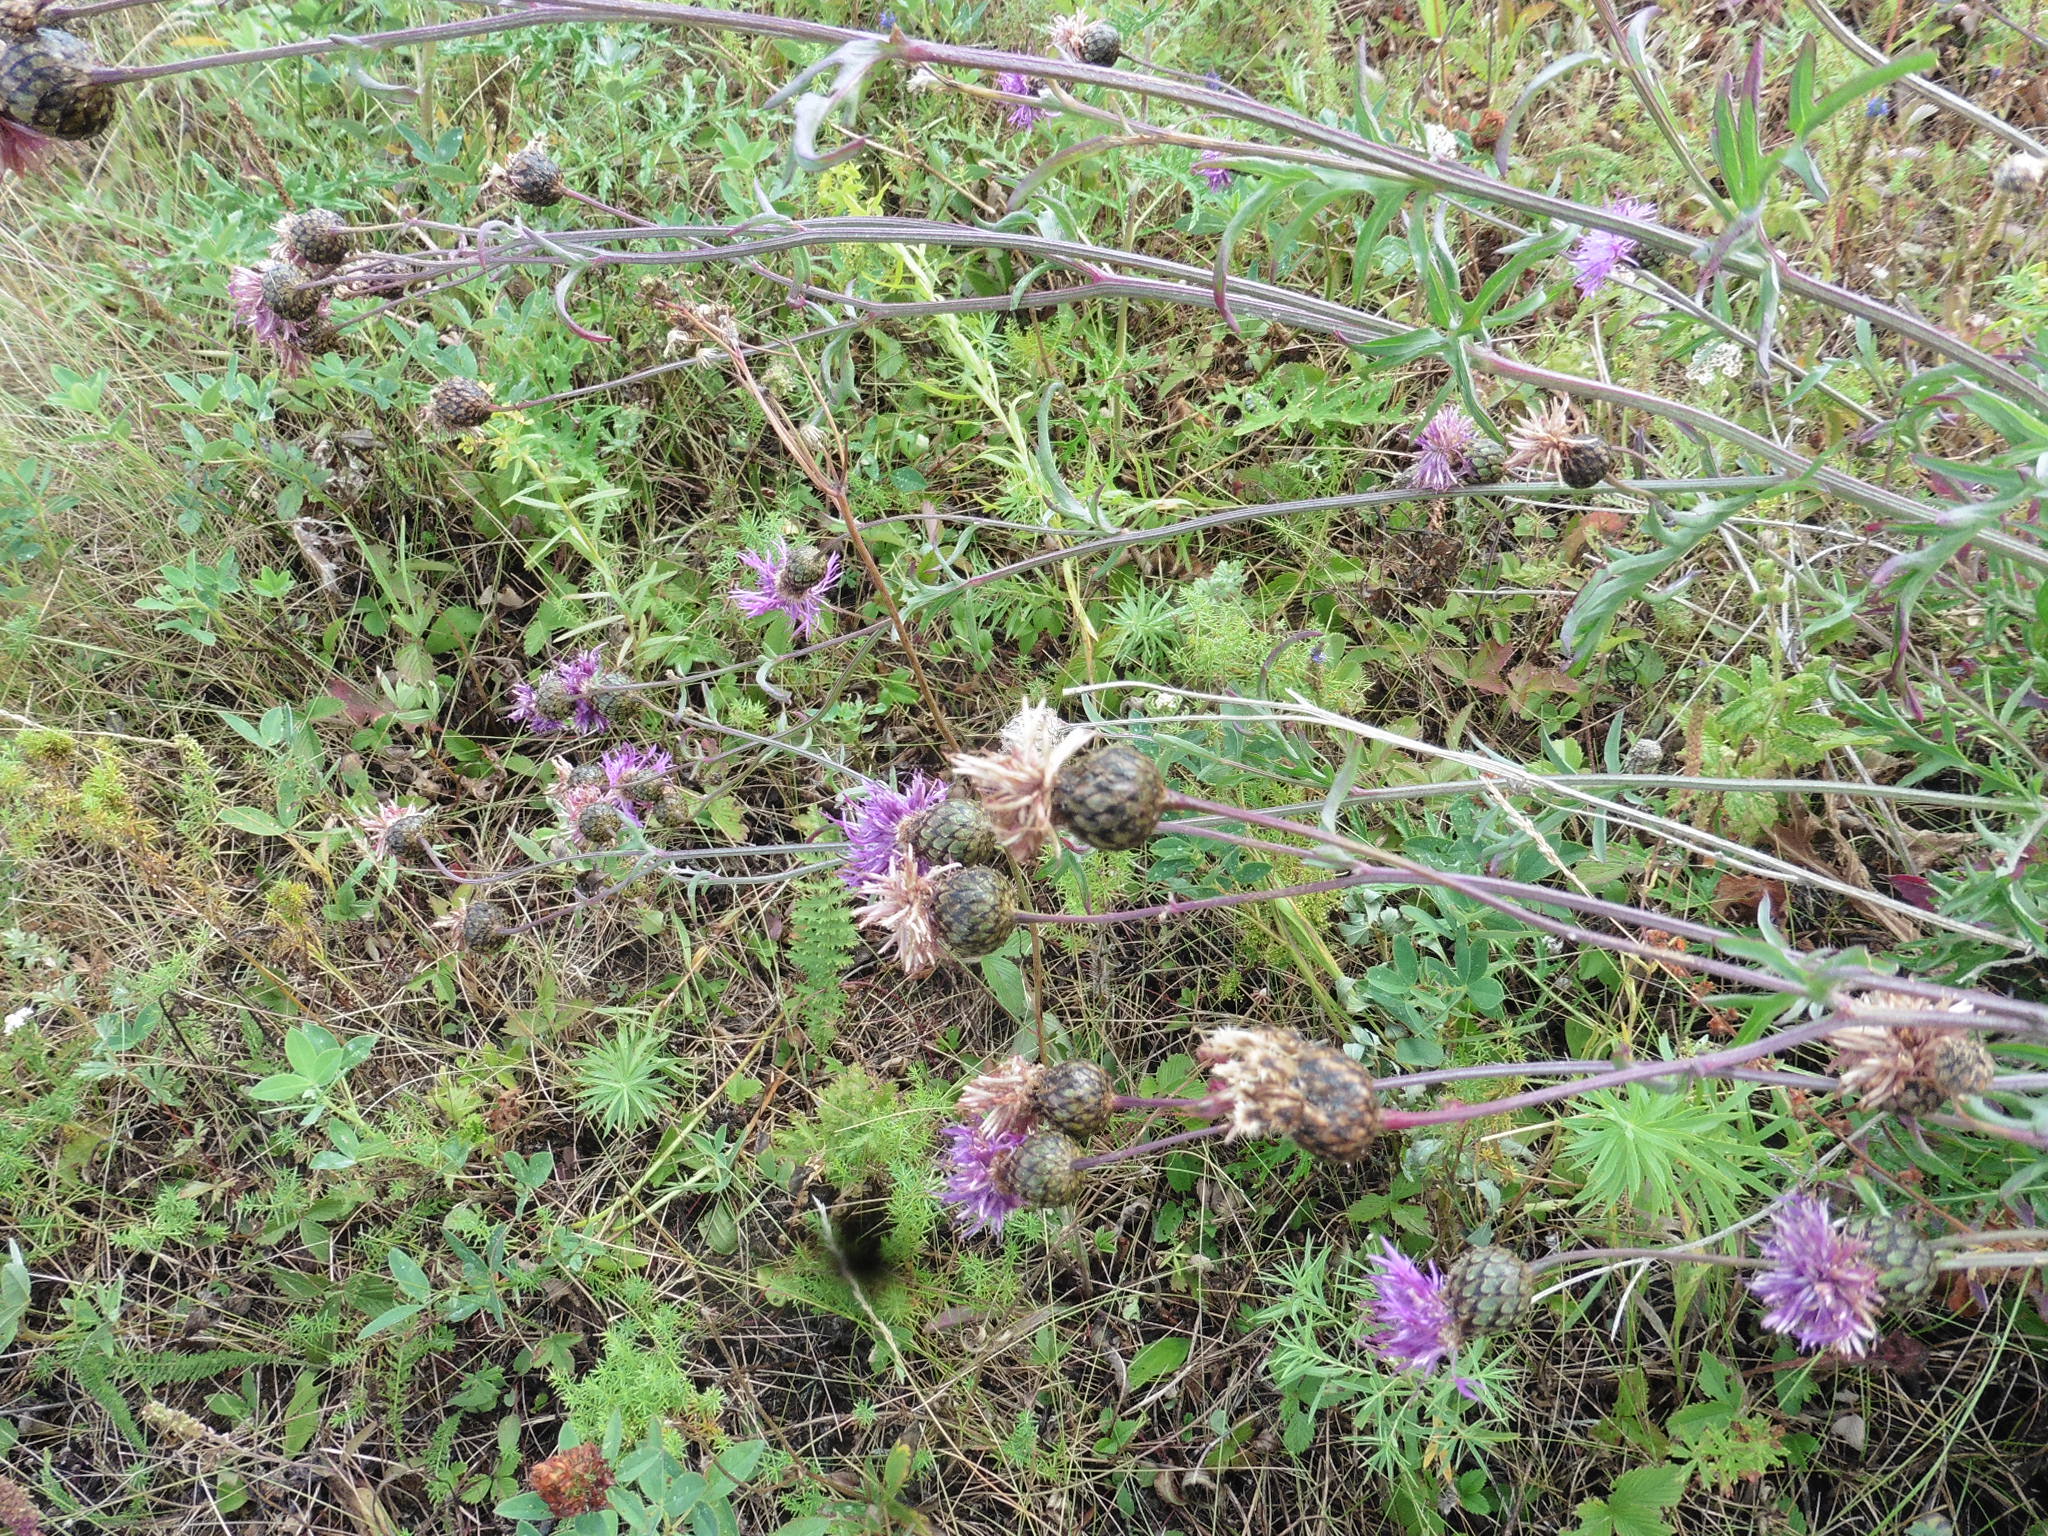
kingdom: Plantae
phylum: Tracheophyta
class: Magnoliopsida
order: Asterales
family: Asteraceae
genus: Centaurea
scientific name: Centaurea scabiosa
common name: Greater knapweed
